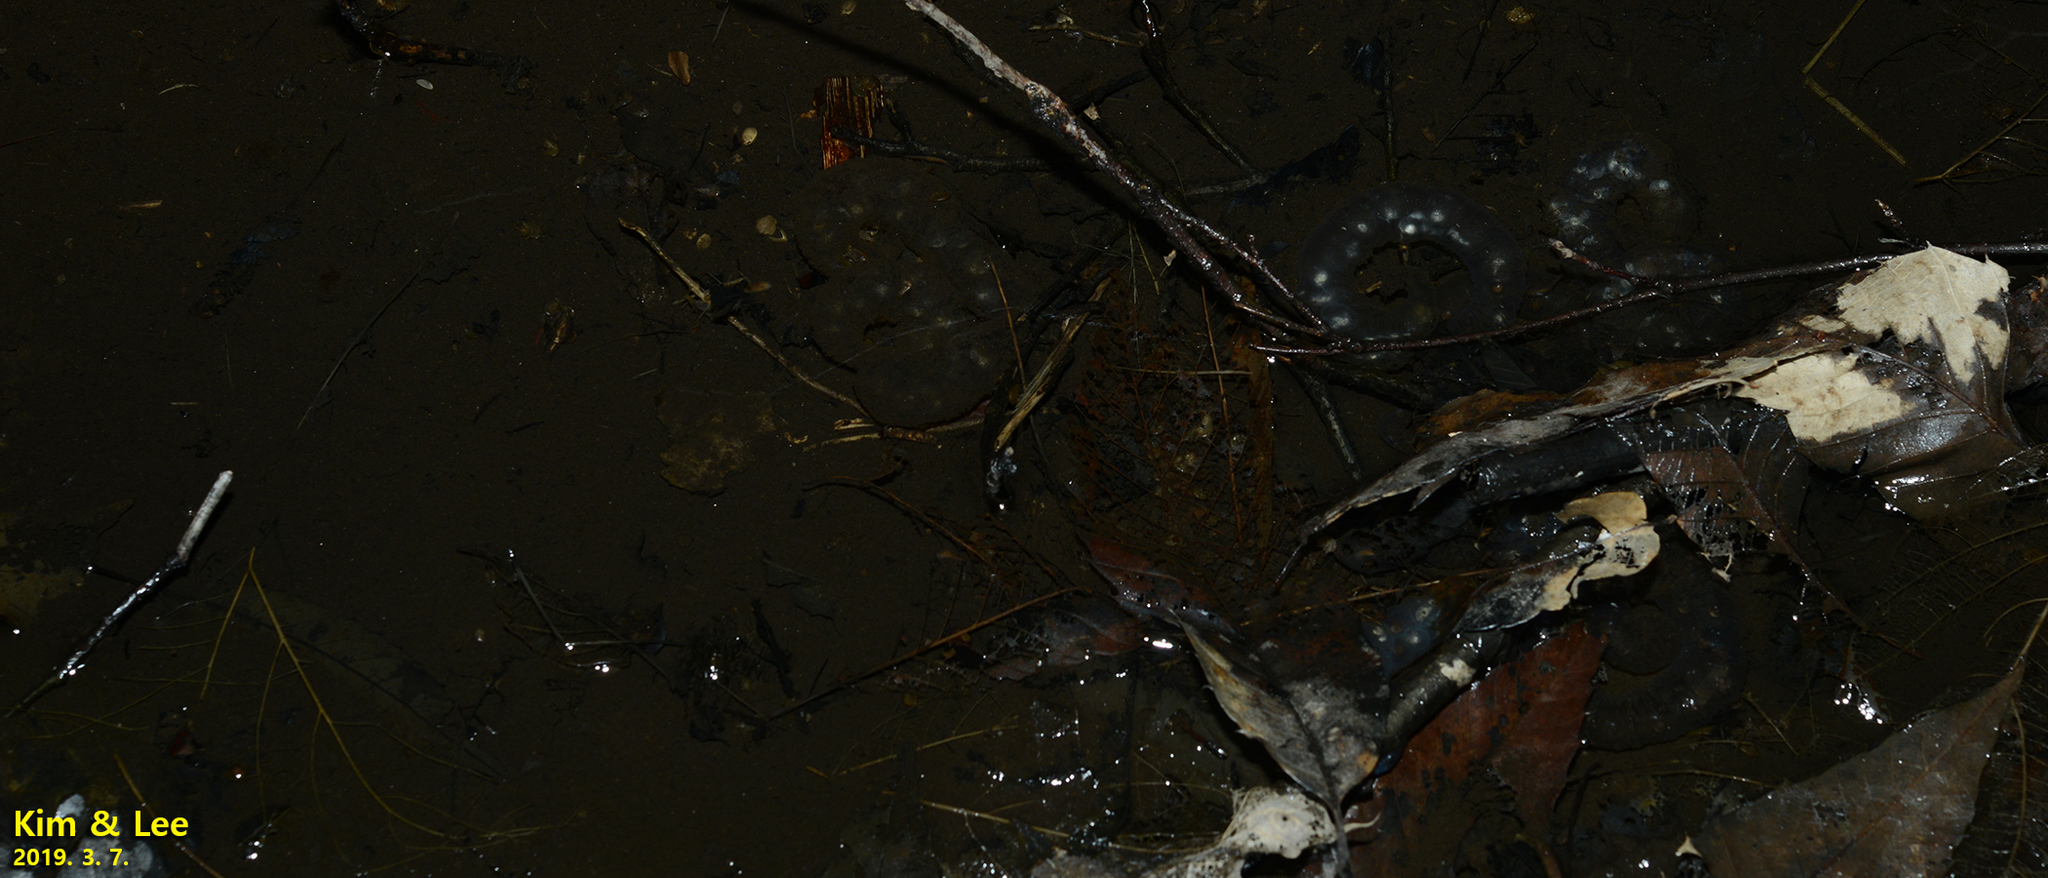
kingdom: Animalia
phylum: Chordata
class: Amphibia
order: Caudata
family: Hynobiidae
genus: Hynobius
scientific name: Hynobius leechii
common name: Gensan salamander
